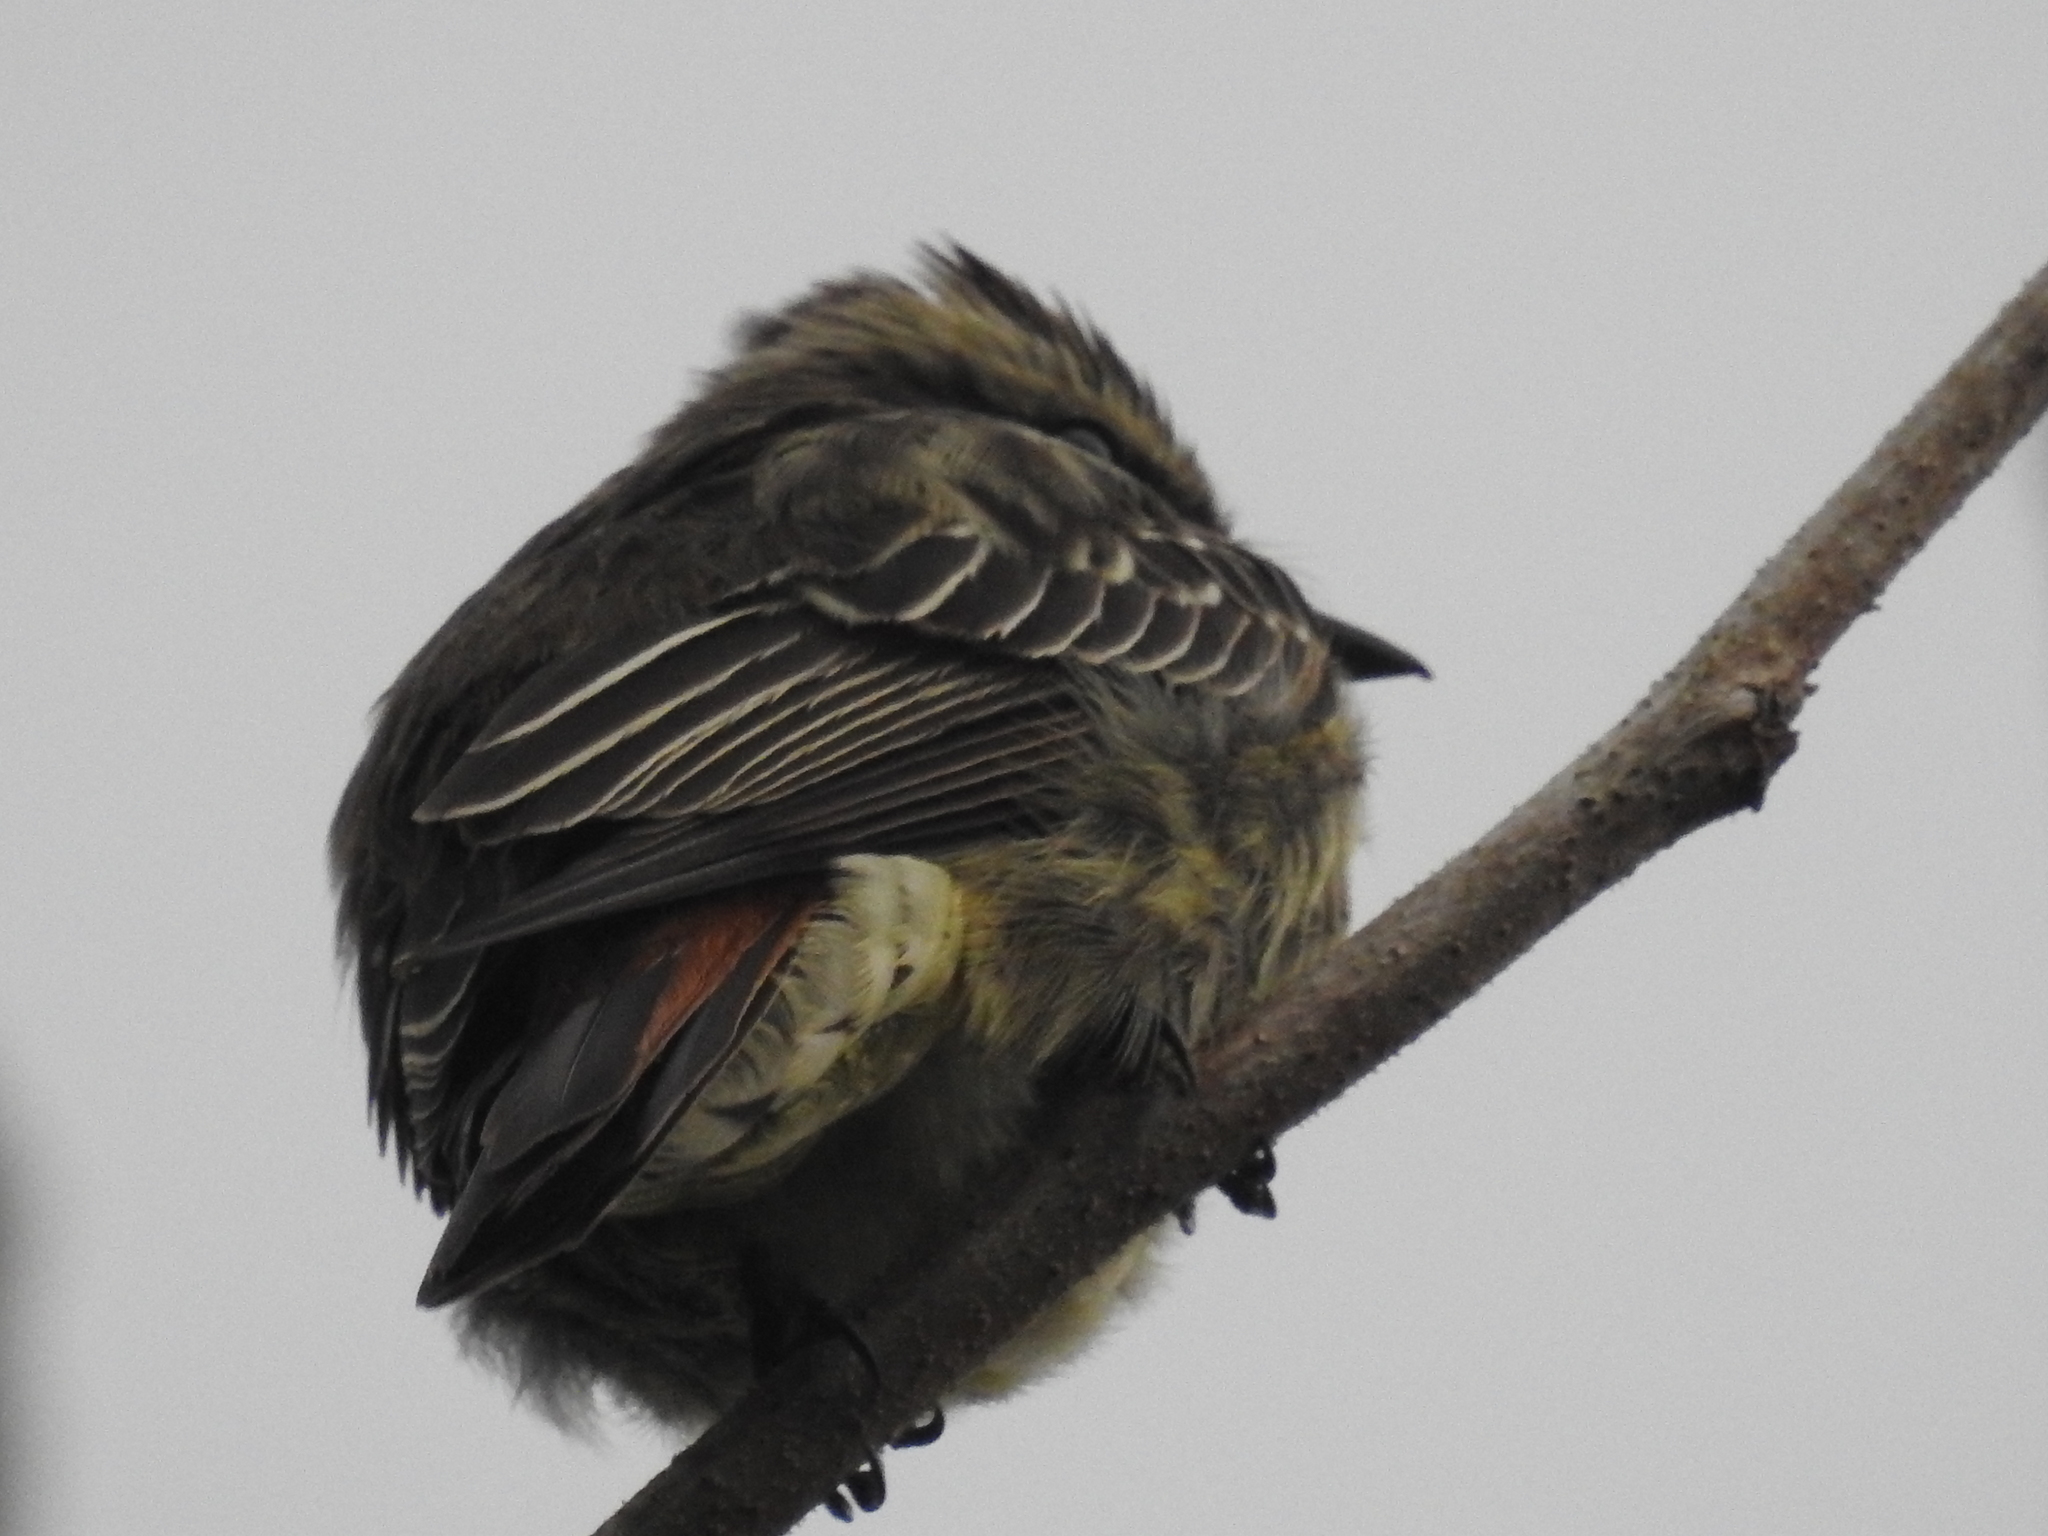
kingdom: Animalia
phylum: Chordata
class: Aves
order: Passeriformes
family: Tyrannidae
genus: Empidonomus
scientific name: Empidonomus varius
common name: Variegated flycatcher
